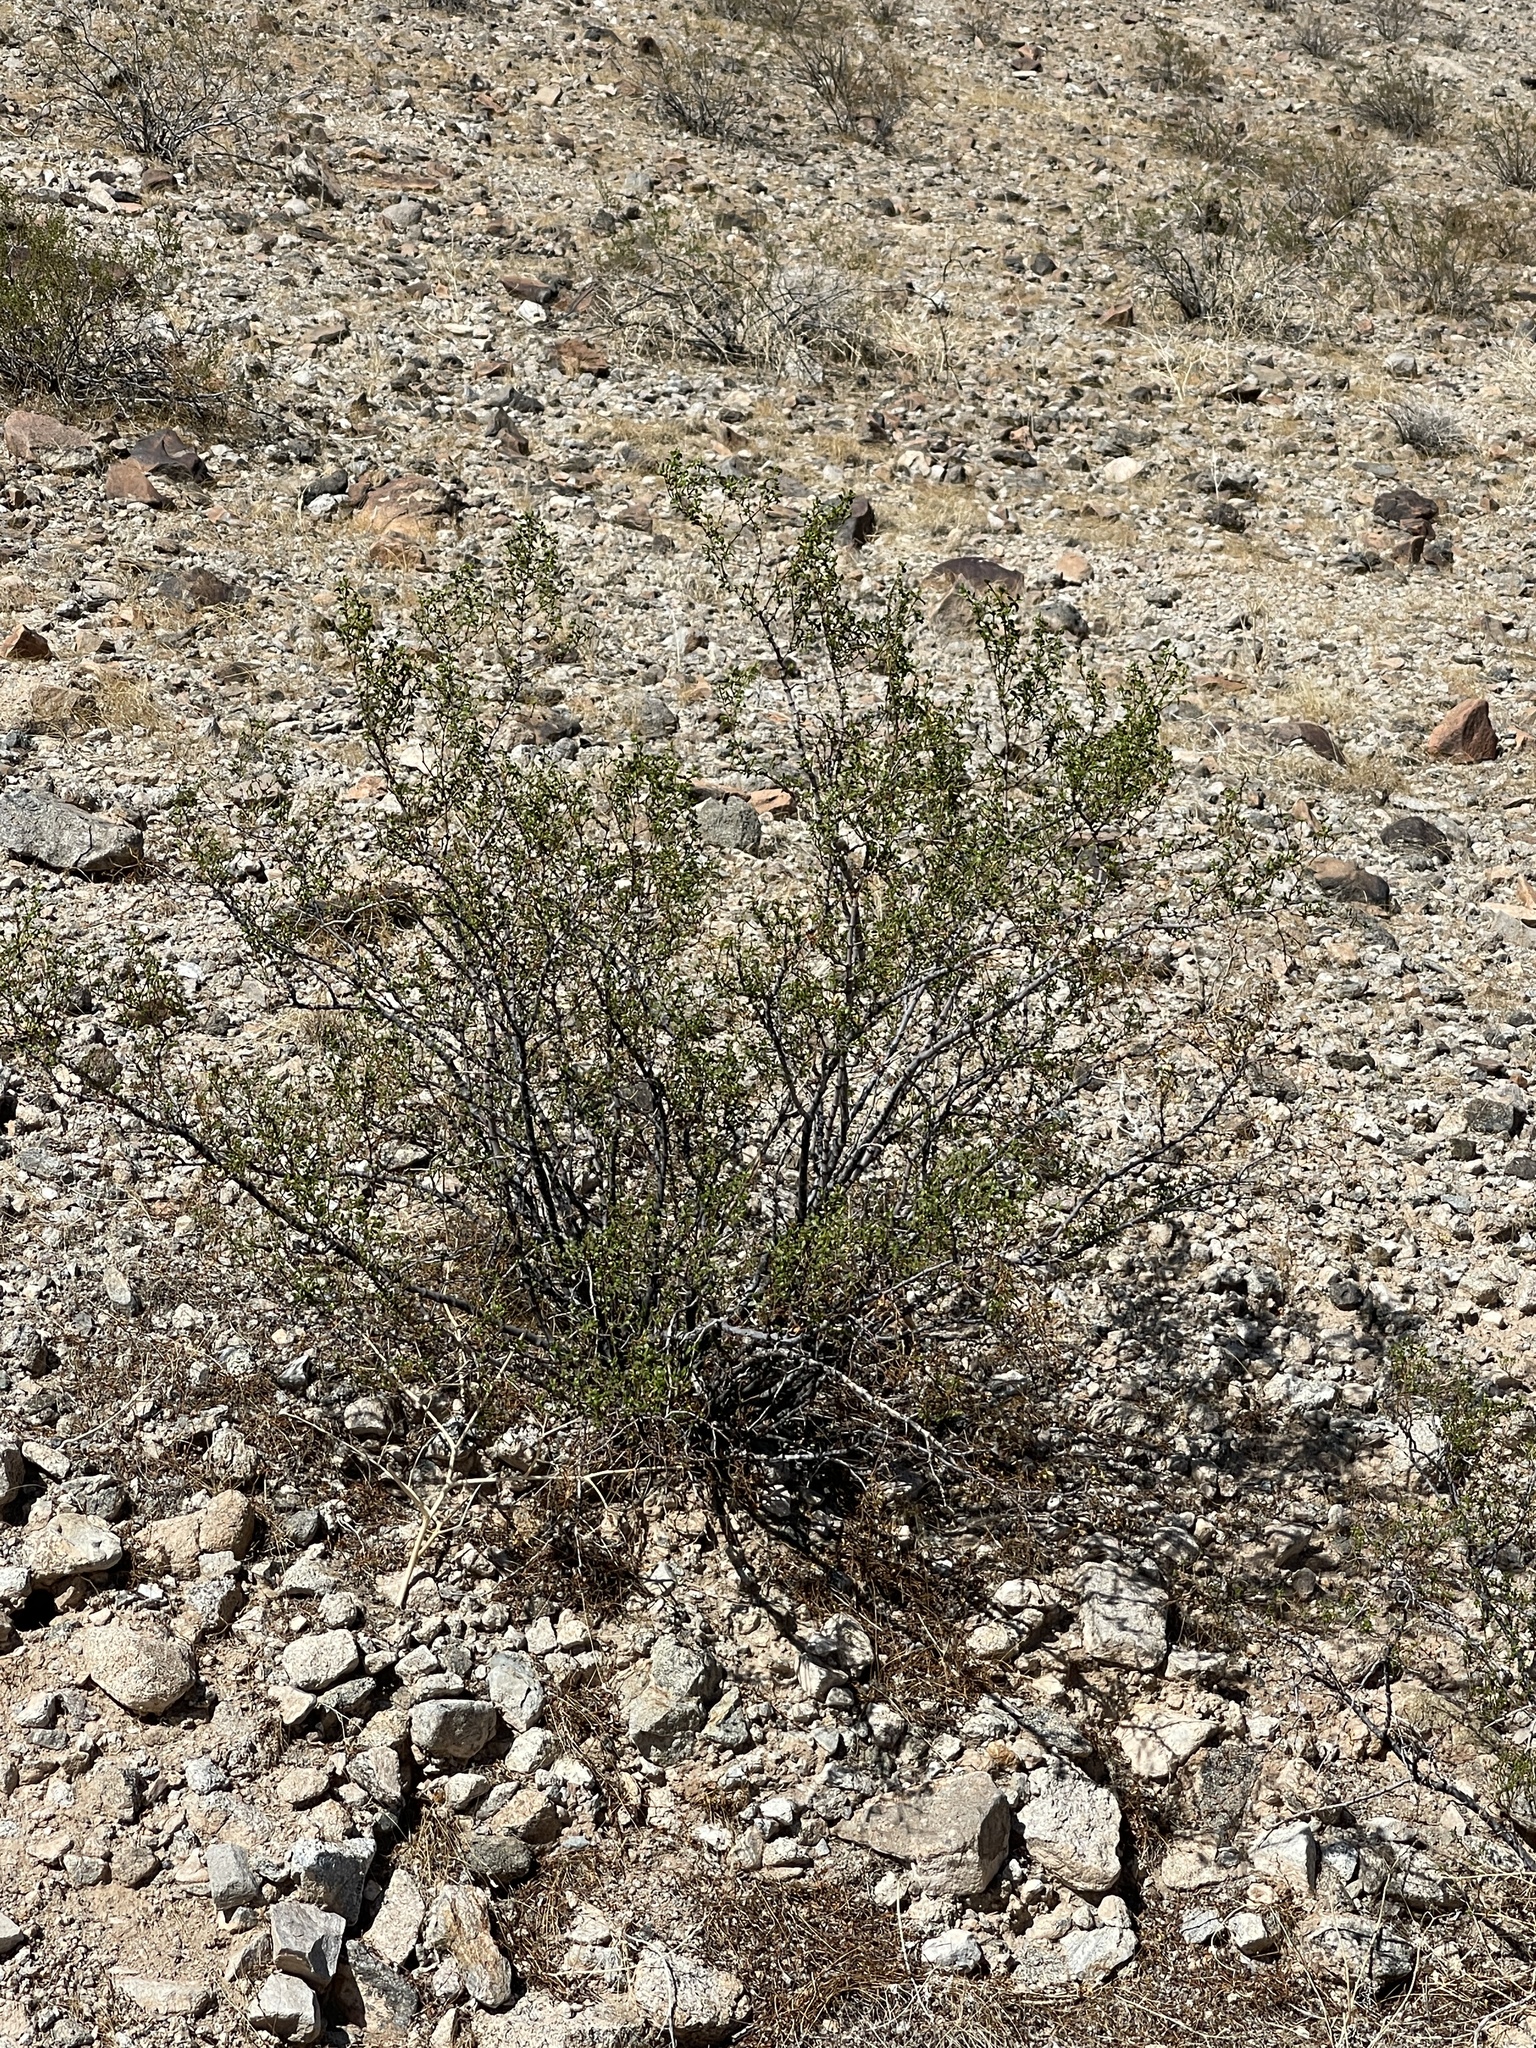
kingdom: Plantae
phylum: Tracheophyta
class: Magnoliopsida
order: Zygophyllales
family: Zygophyllaceae
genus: Larrea
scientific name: Larrea tridentata
